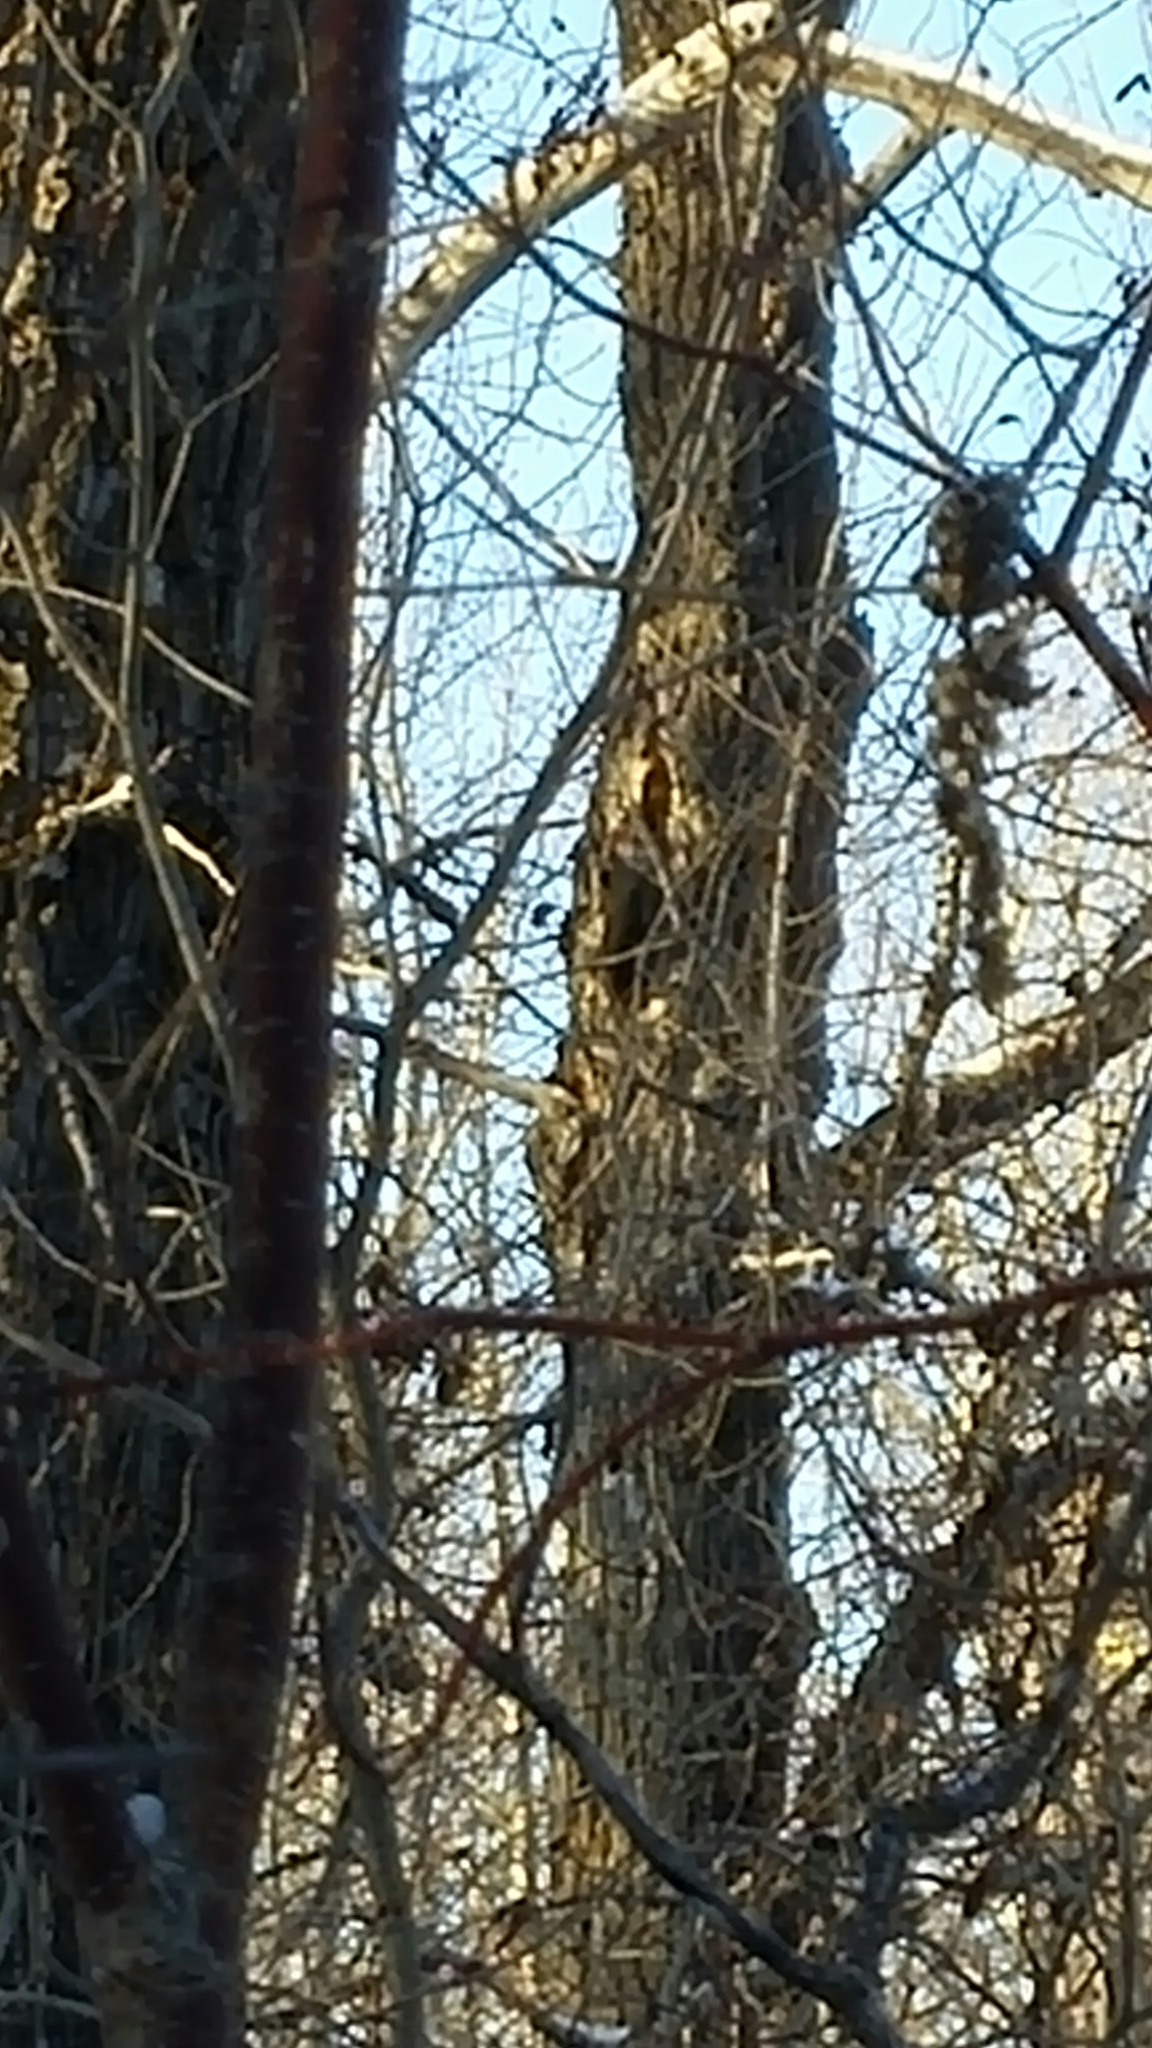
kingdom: Animalia
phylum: Chordata
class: Aves
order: Piciformes
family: Picidae
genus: Dryocopus
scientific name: Dryocopus pileatus
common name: Pileated woodpecker
